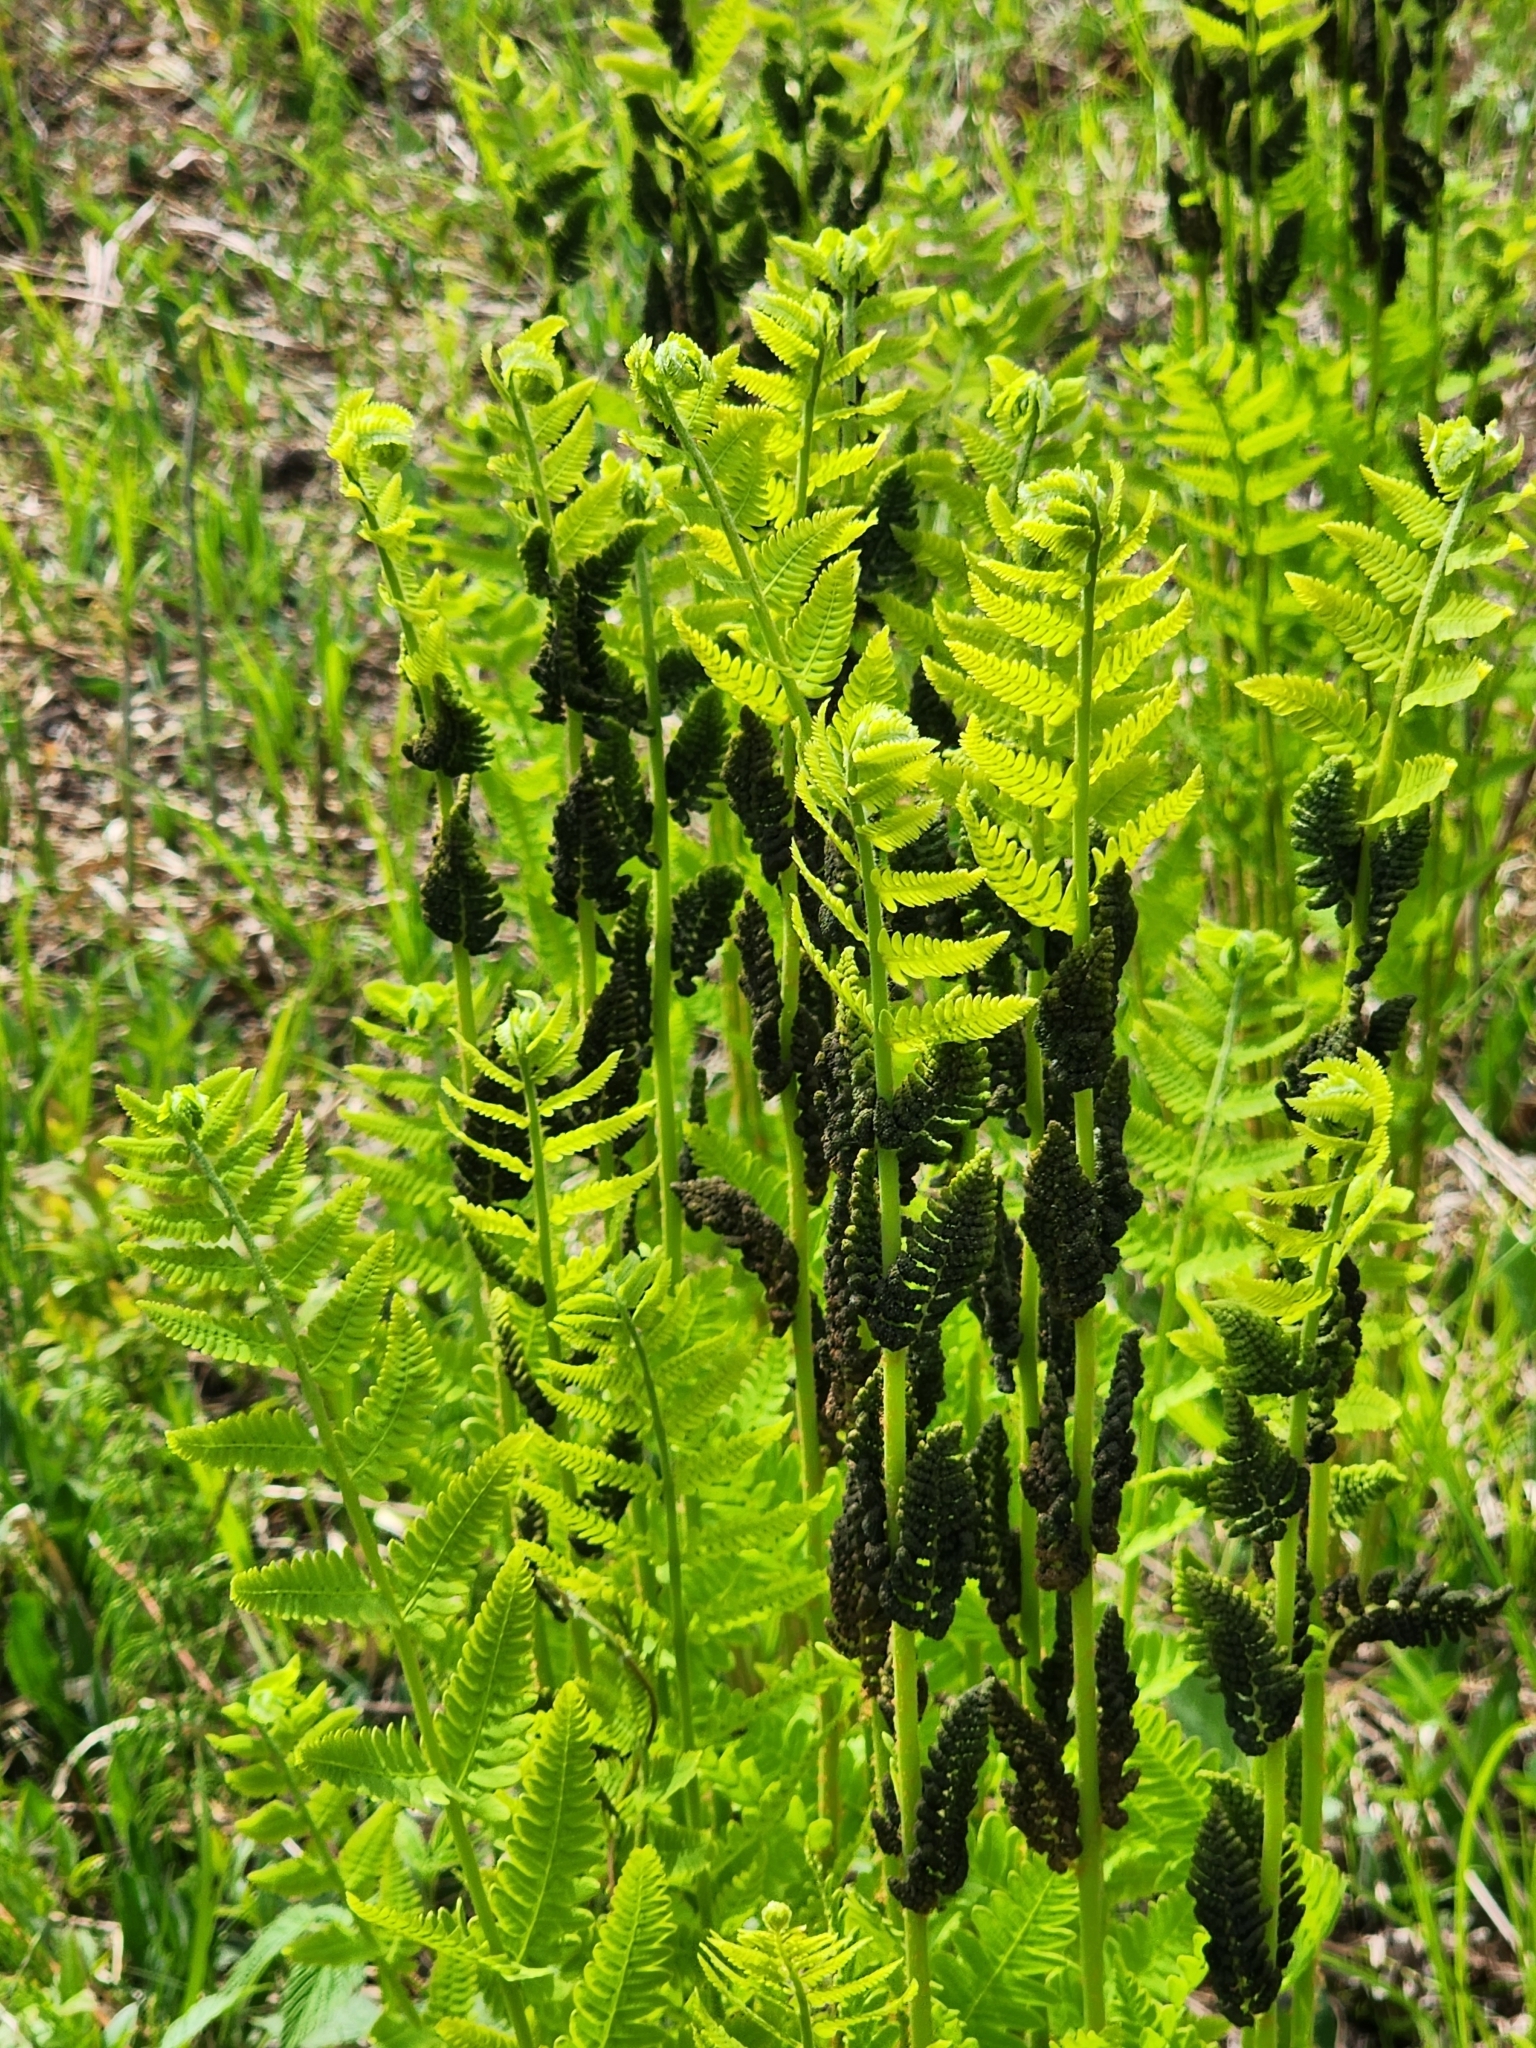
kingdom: Plantae
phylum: Tracheophyta
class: Polypodiopsida
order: Osmundales
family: Osmundaceae
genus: Claytosmunda
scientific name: Claytosmunda claytoniana
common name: Clayton's fern
